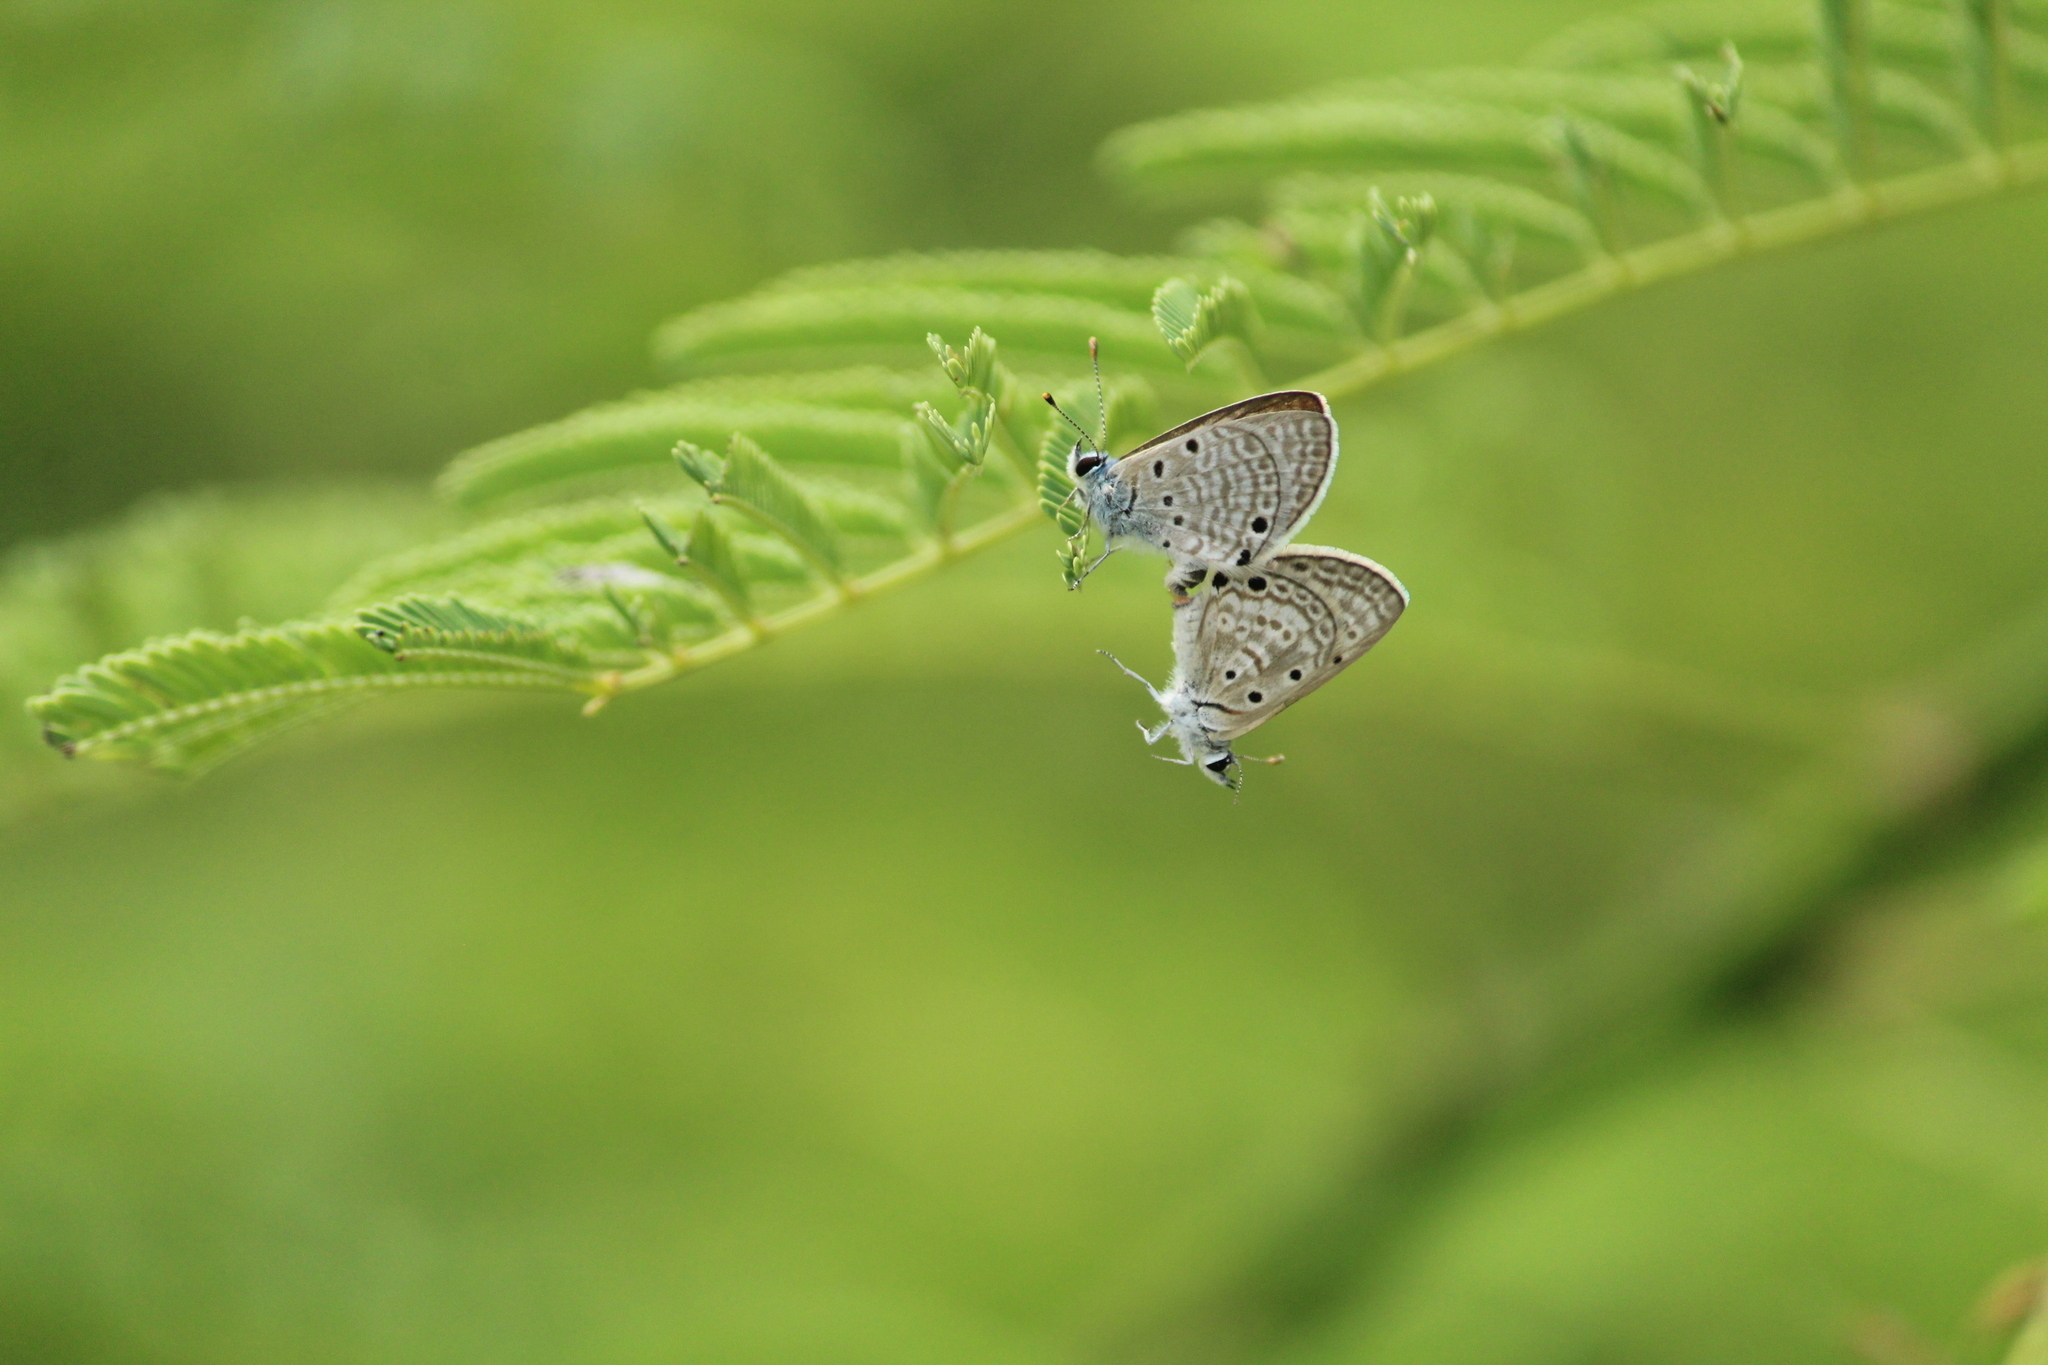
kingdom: Animalia
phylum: Arthropoda
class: Insecta
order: Lepidoptera
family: Lycaenidae
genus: Azanus
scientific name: Azanus ubaldus
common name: Desert babul blue
